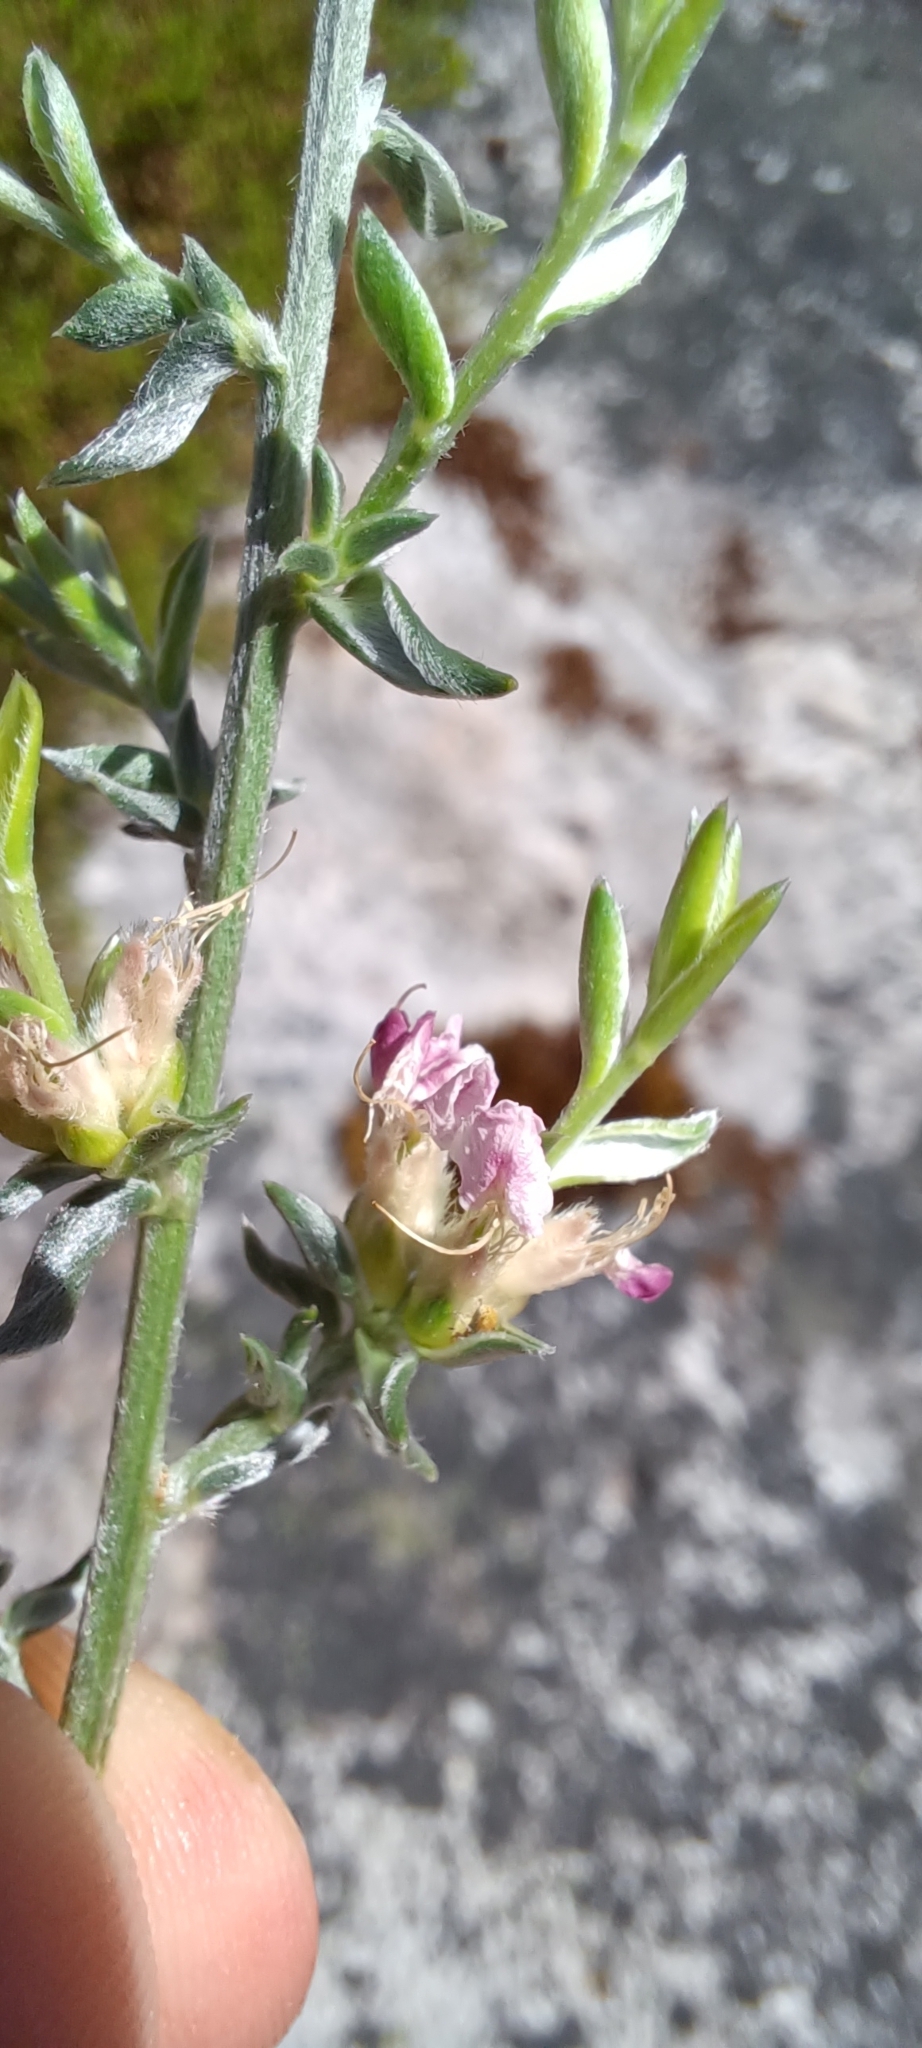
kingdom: Plantae
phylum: Tracheophyta
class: Magnoliopsida
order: Fabales
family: Fabaceae
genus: Amphithalea
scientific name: Amphithalea muraltioides
